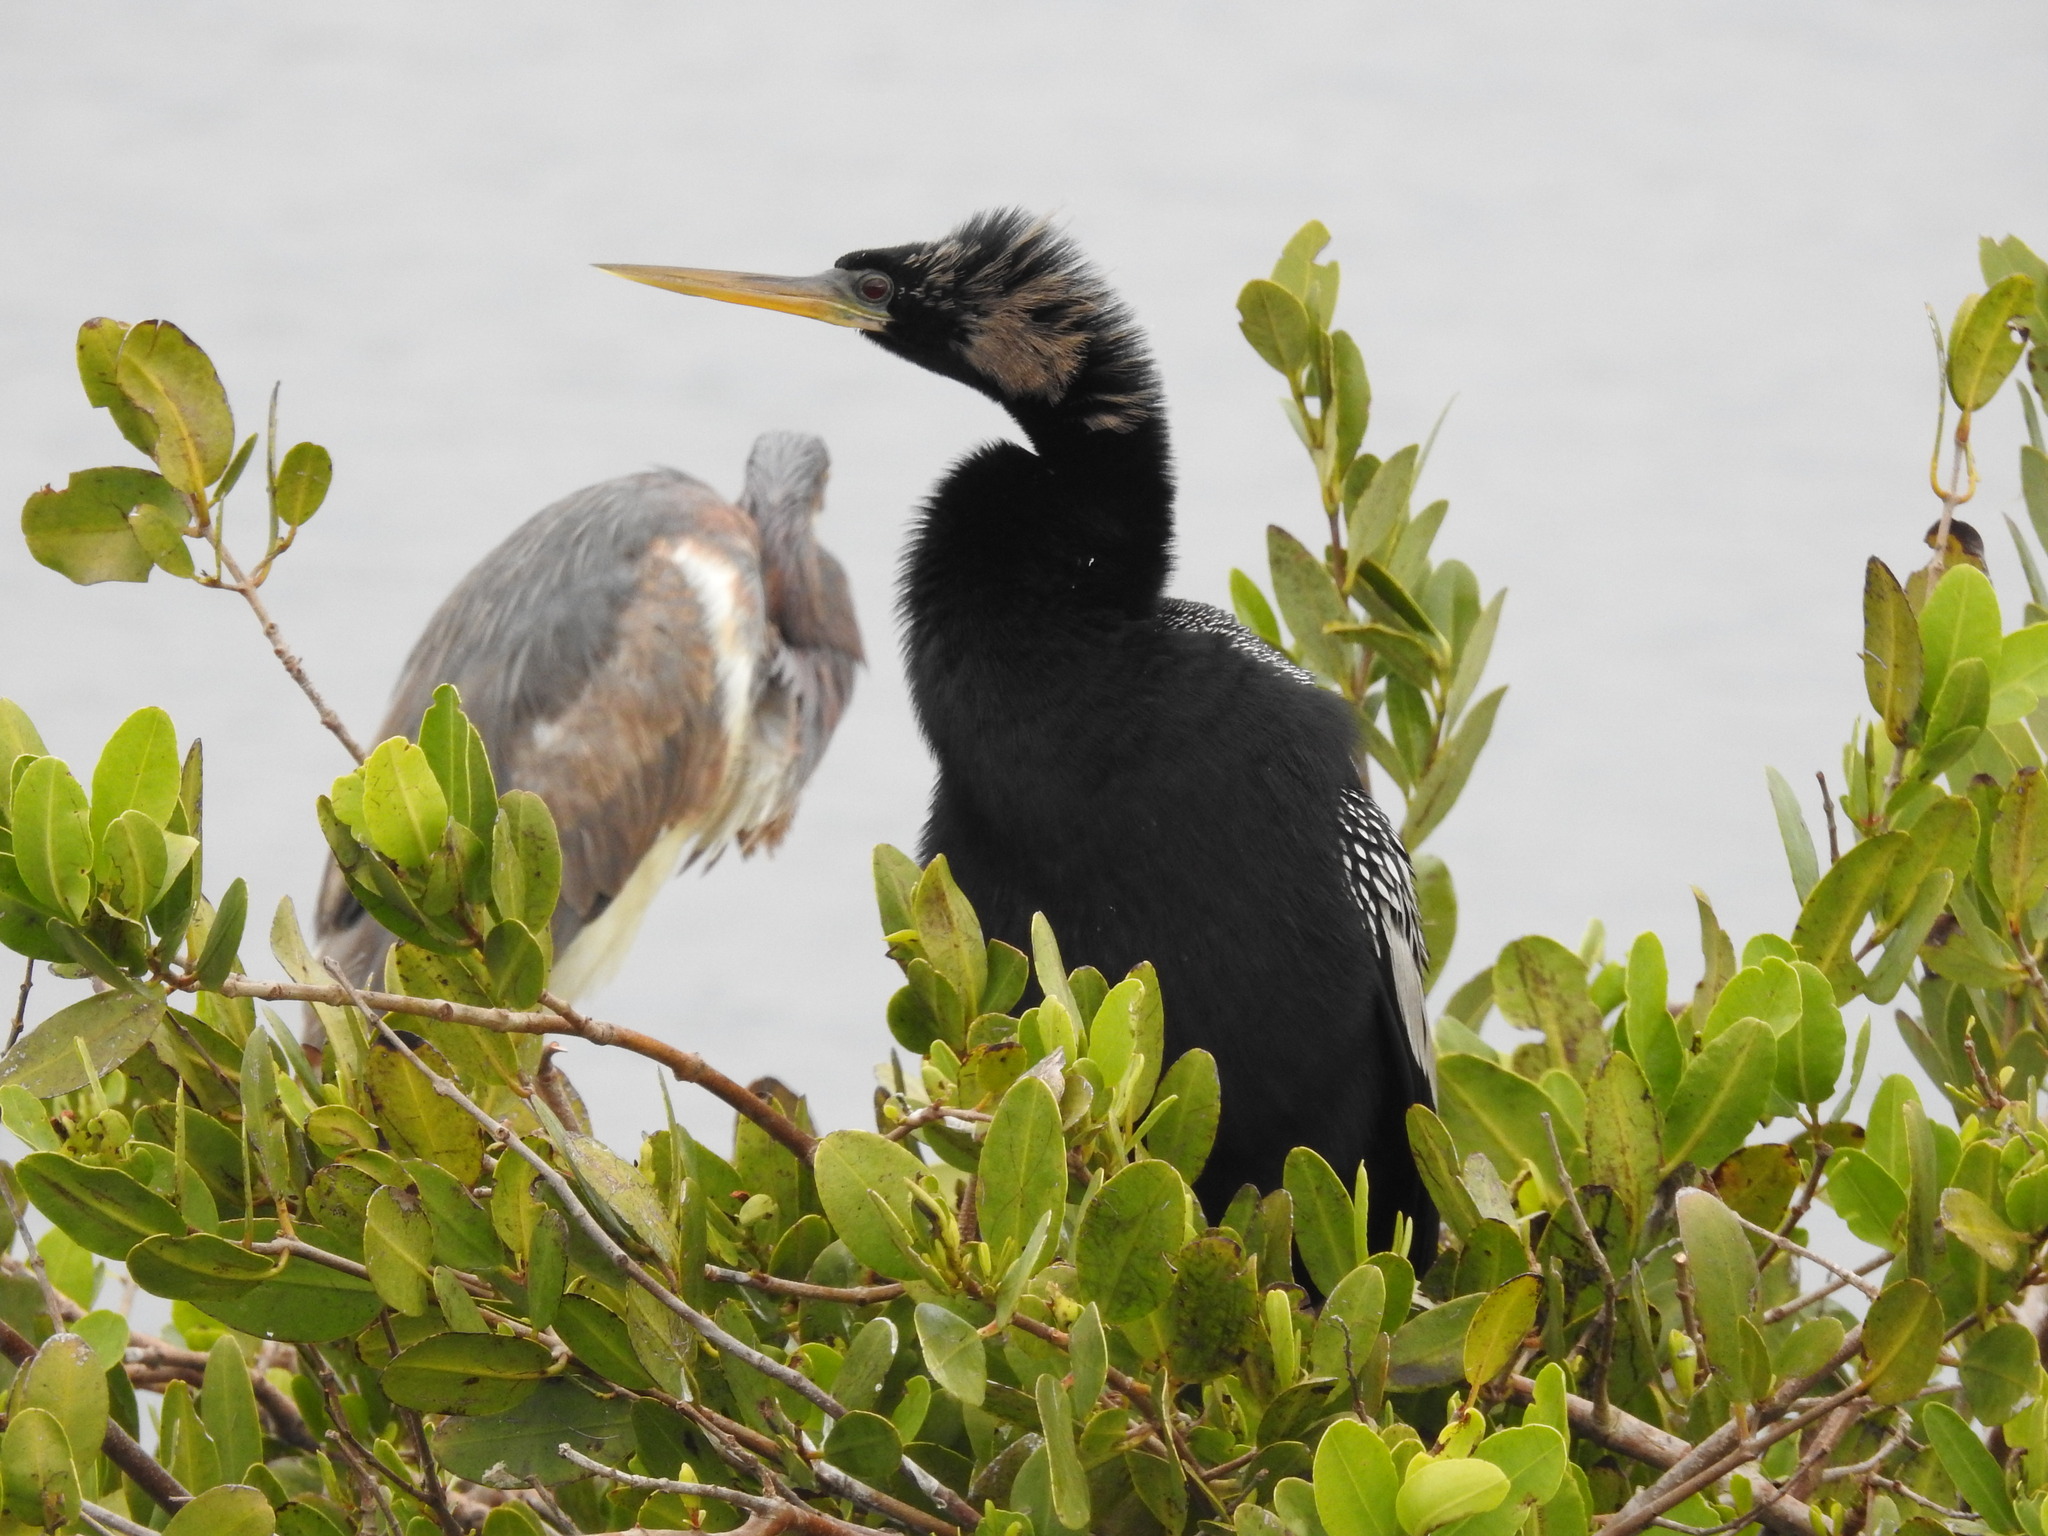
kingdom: Animalia
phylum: Chordata
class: Aves
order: Suliformes
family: Anhingidae
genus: Anhinga
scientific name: Anhinga anhinga
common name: Anhinga
